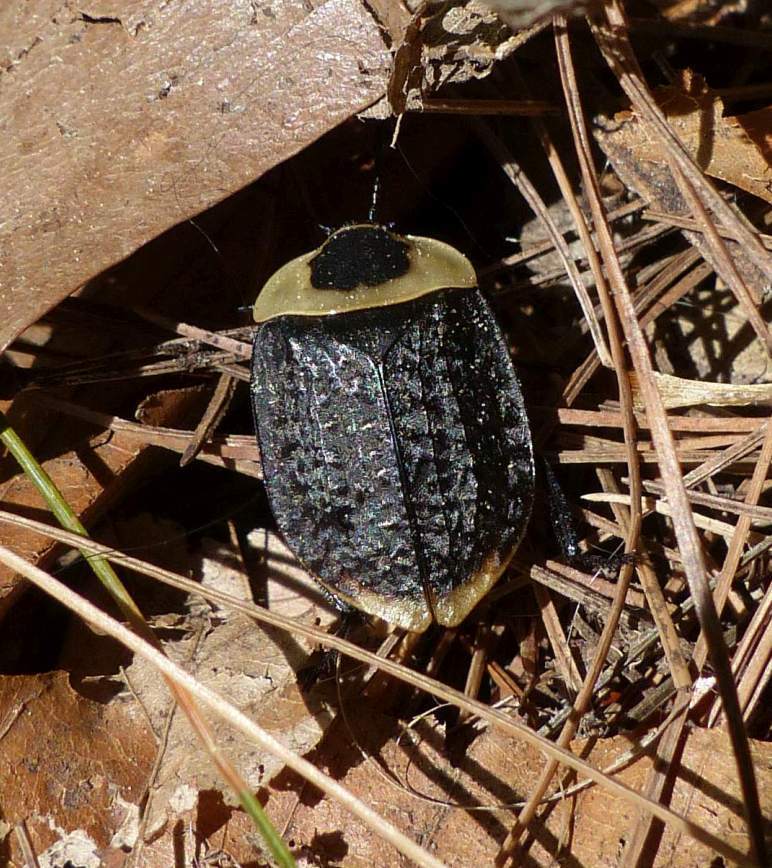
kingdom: Animalia
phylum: Arthropoda
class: Insecta
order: Coleoptera
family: Staphylinidae
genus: Necrophila
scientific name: Necrophila americana
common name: American carrion beetle
